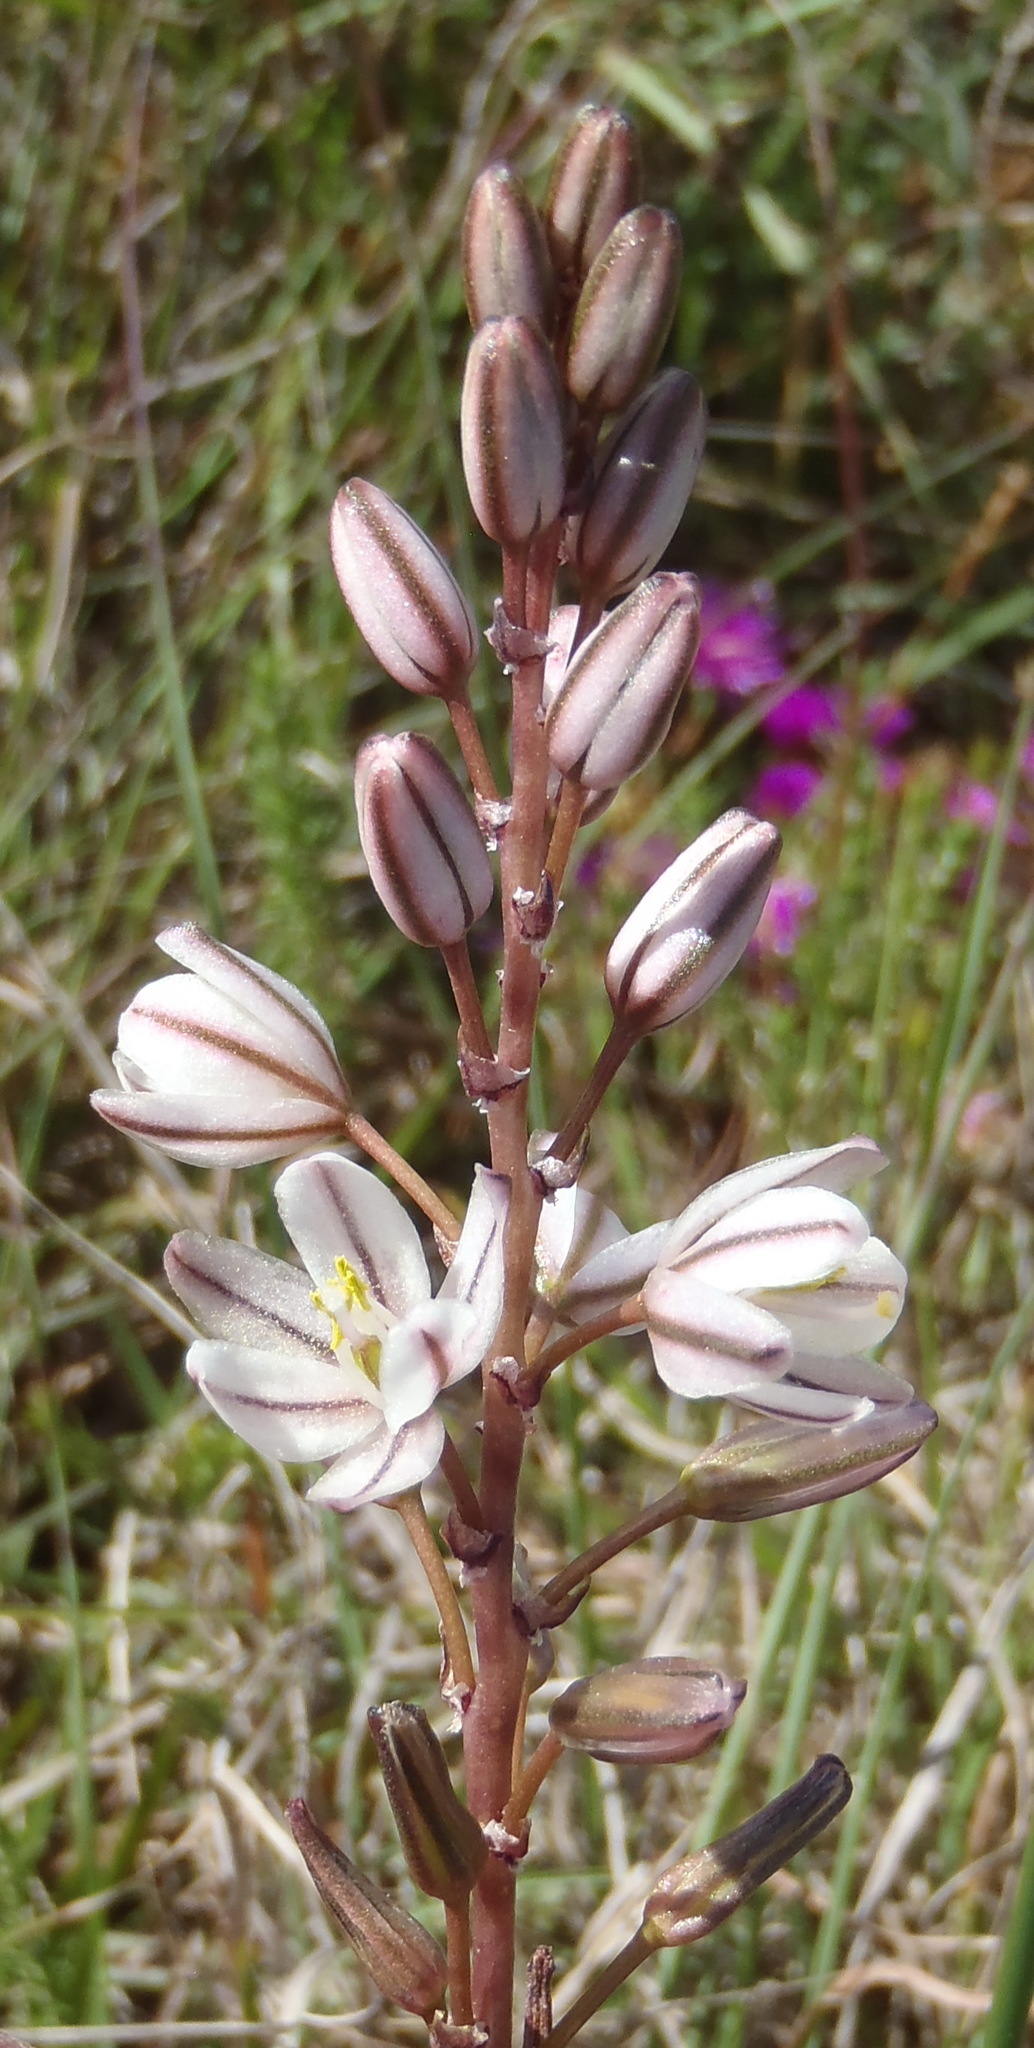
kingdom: Plantae
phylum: Tracheophyta
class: Liliopsida
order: Asparagales
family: Asparagaceae
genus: Drimia
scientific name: Drimia exuviata
